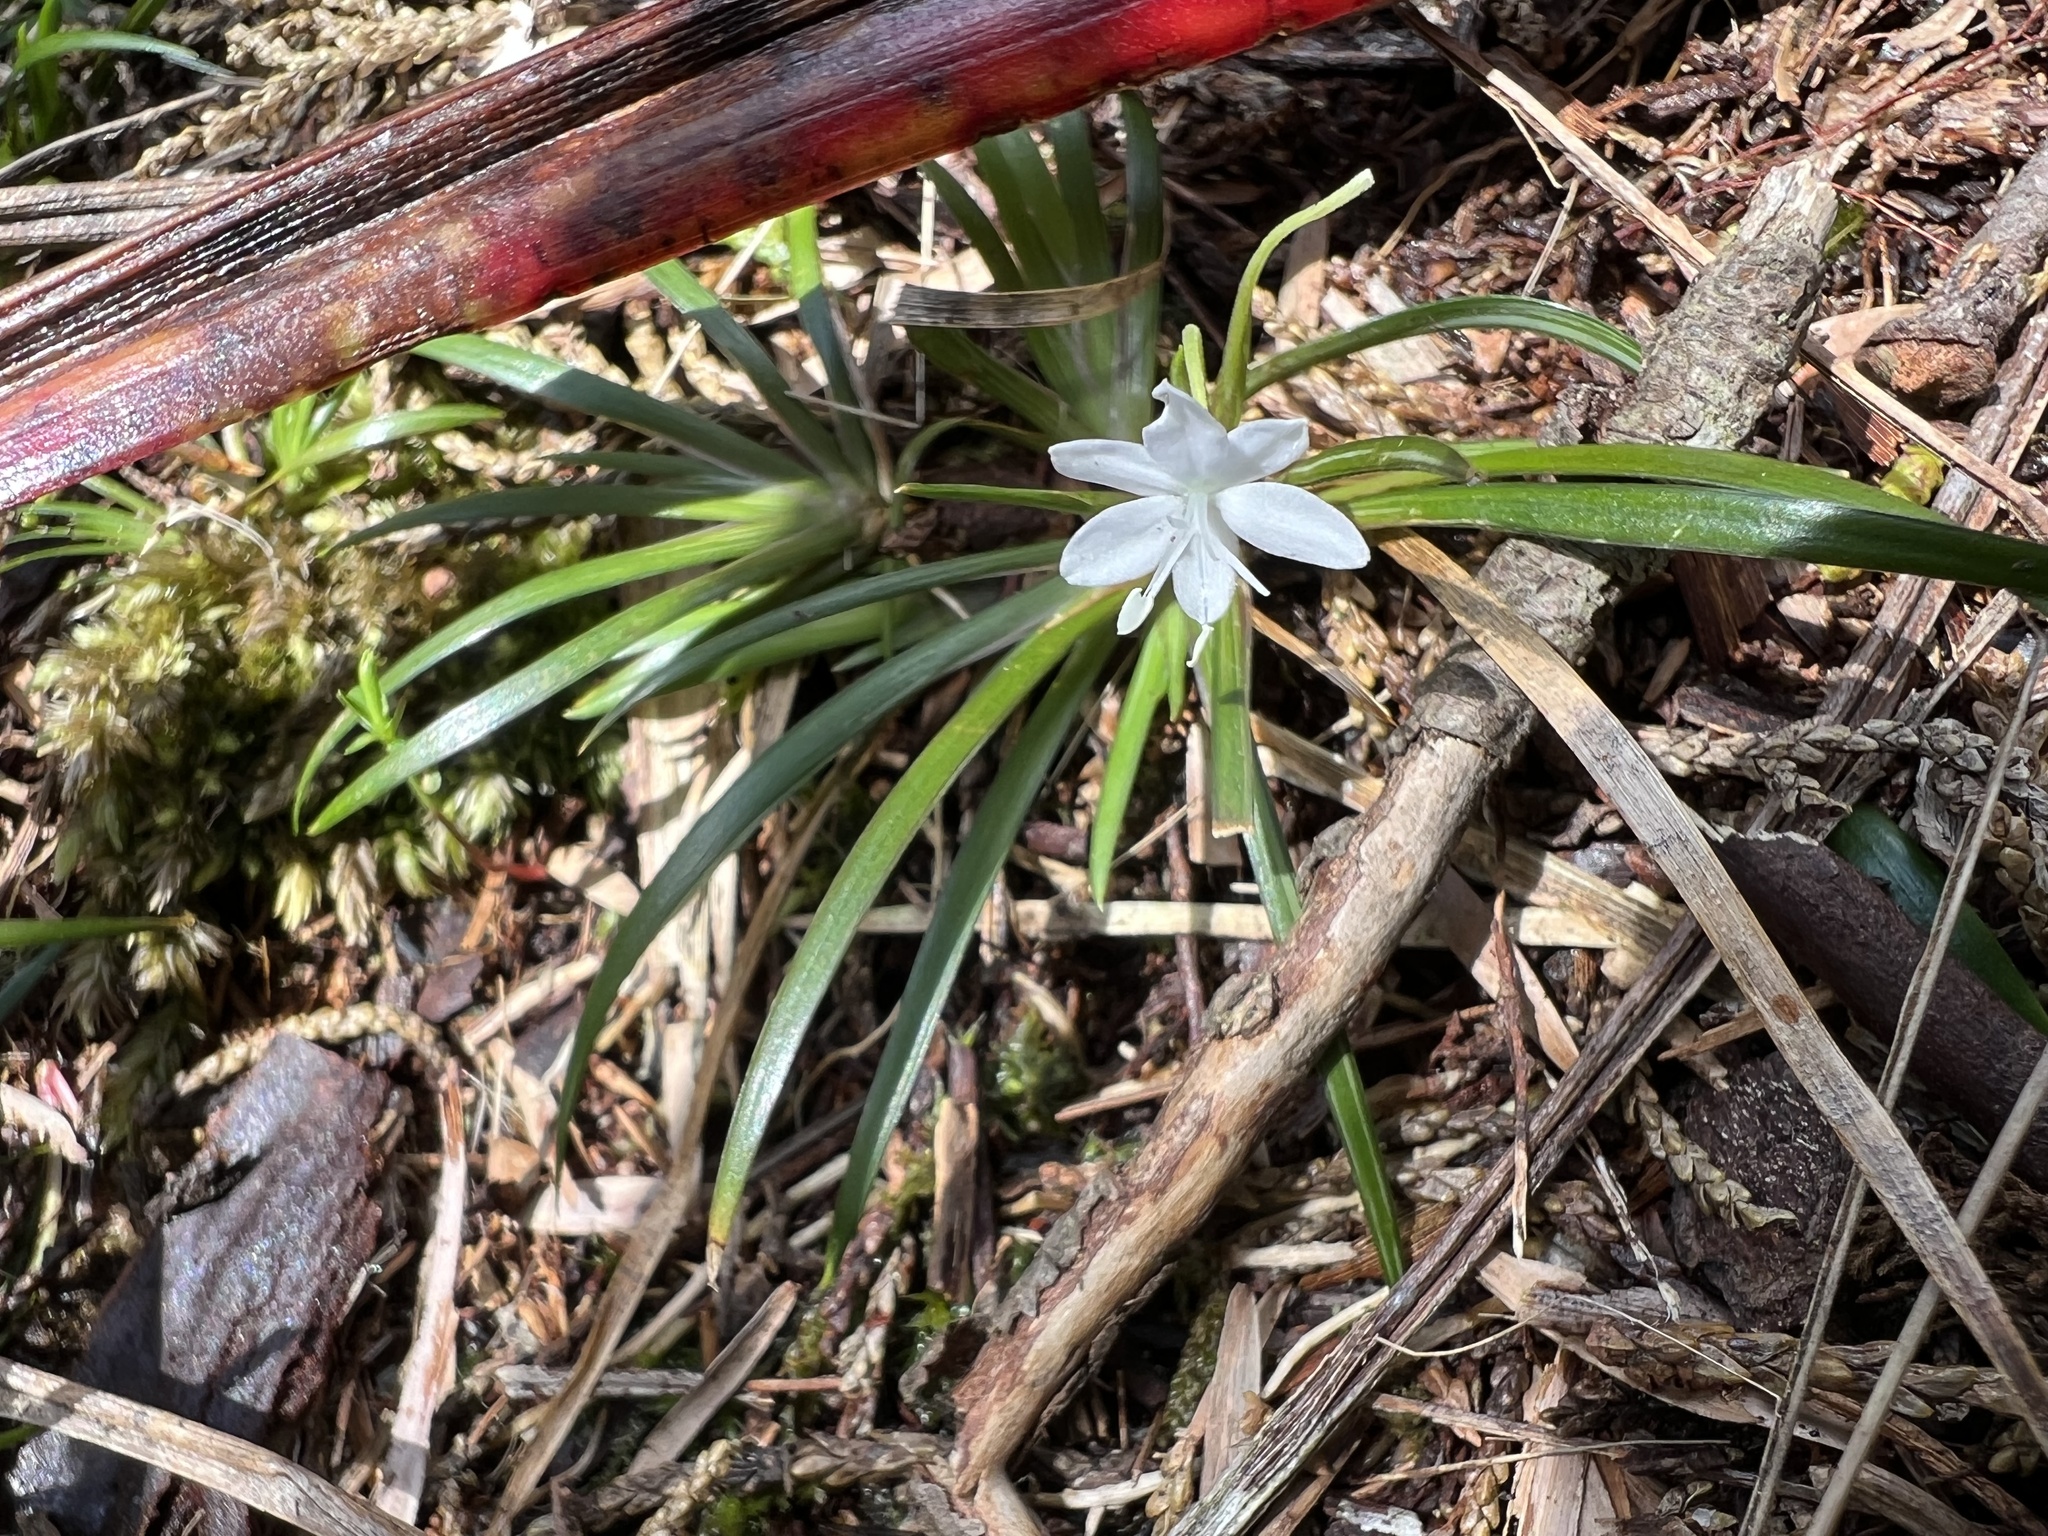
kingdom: Plantae
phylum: Tracheophyta
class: Liliopsida
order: Asparagales
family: Iridaceae
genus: Libertia
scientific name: Libertia micrantha
